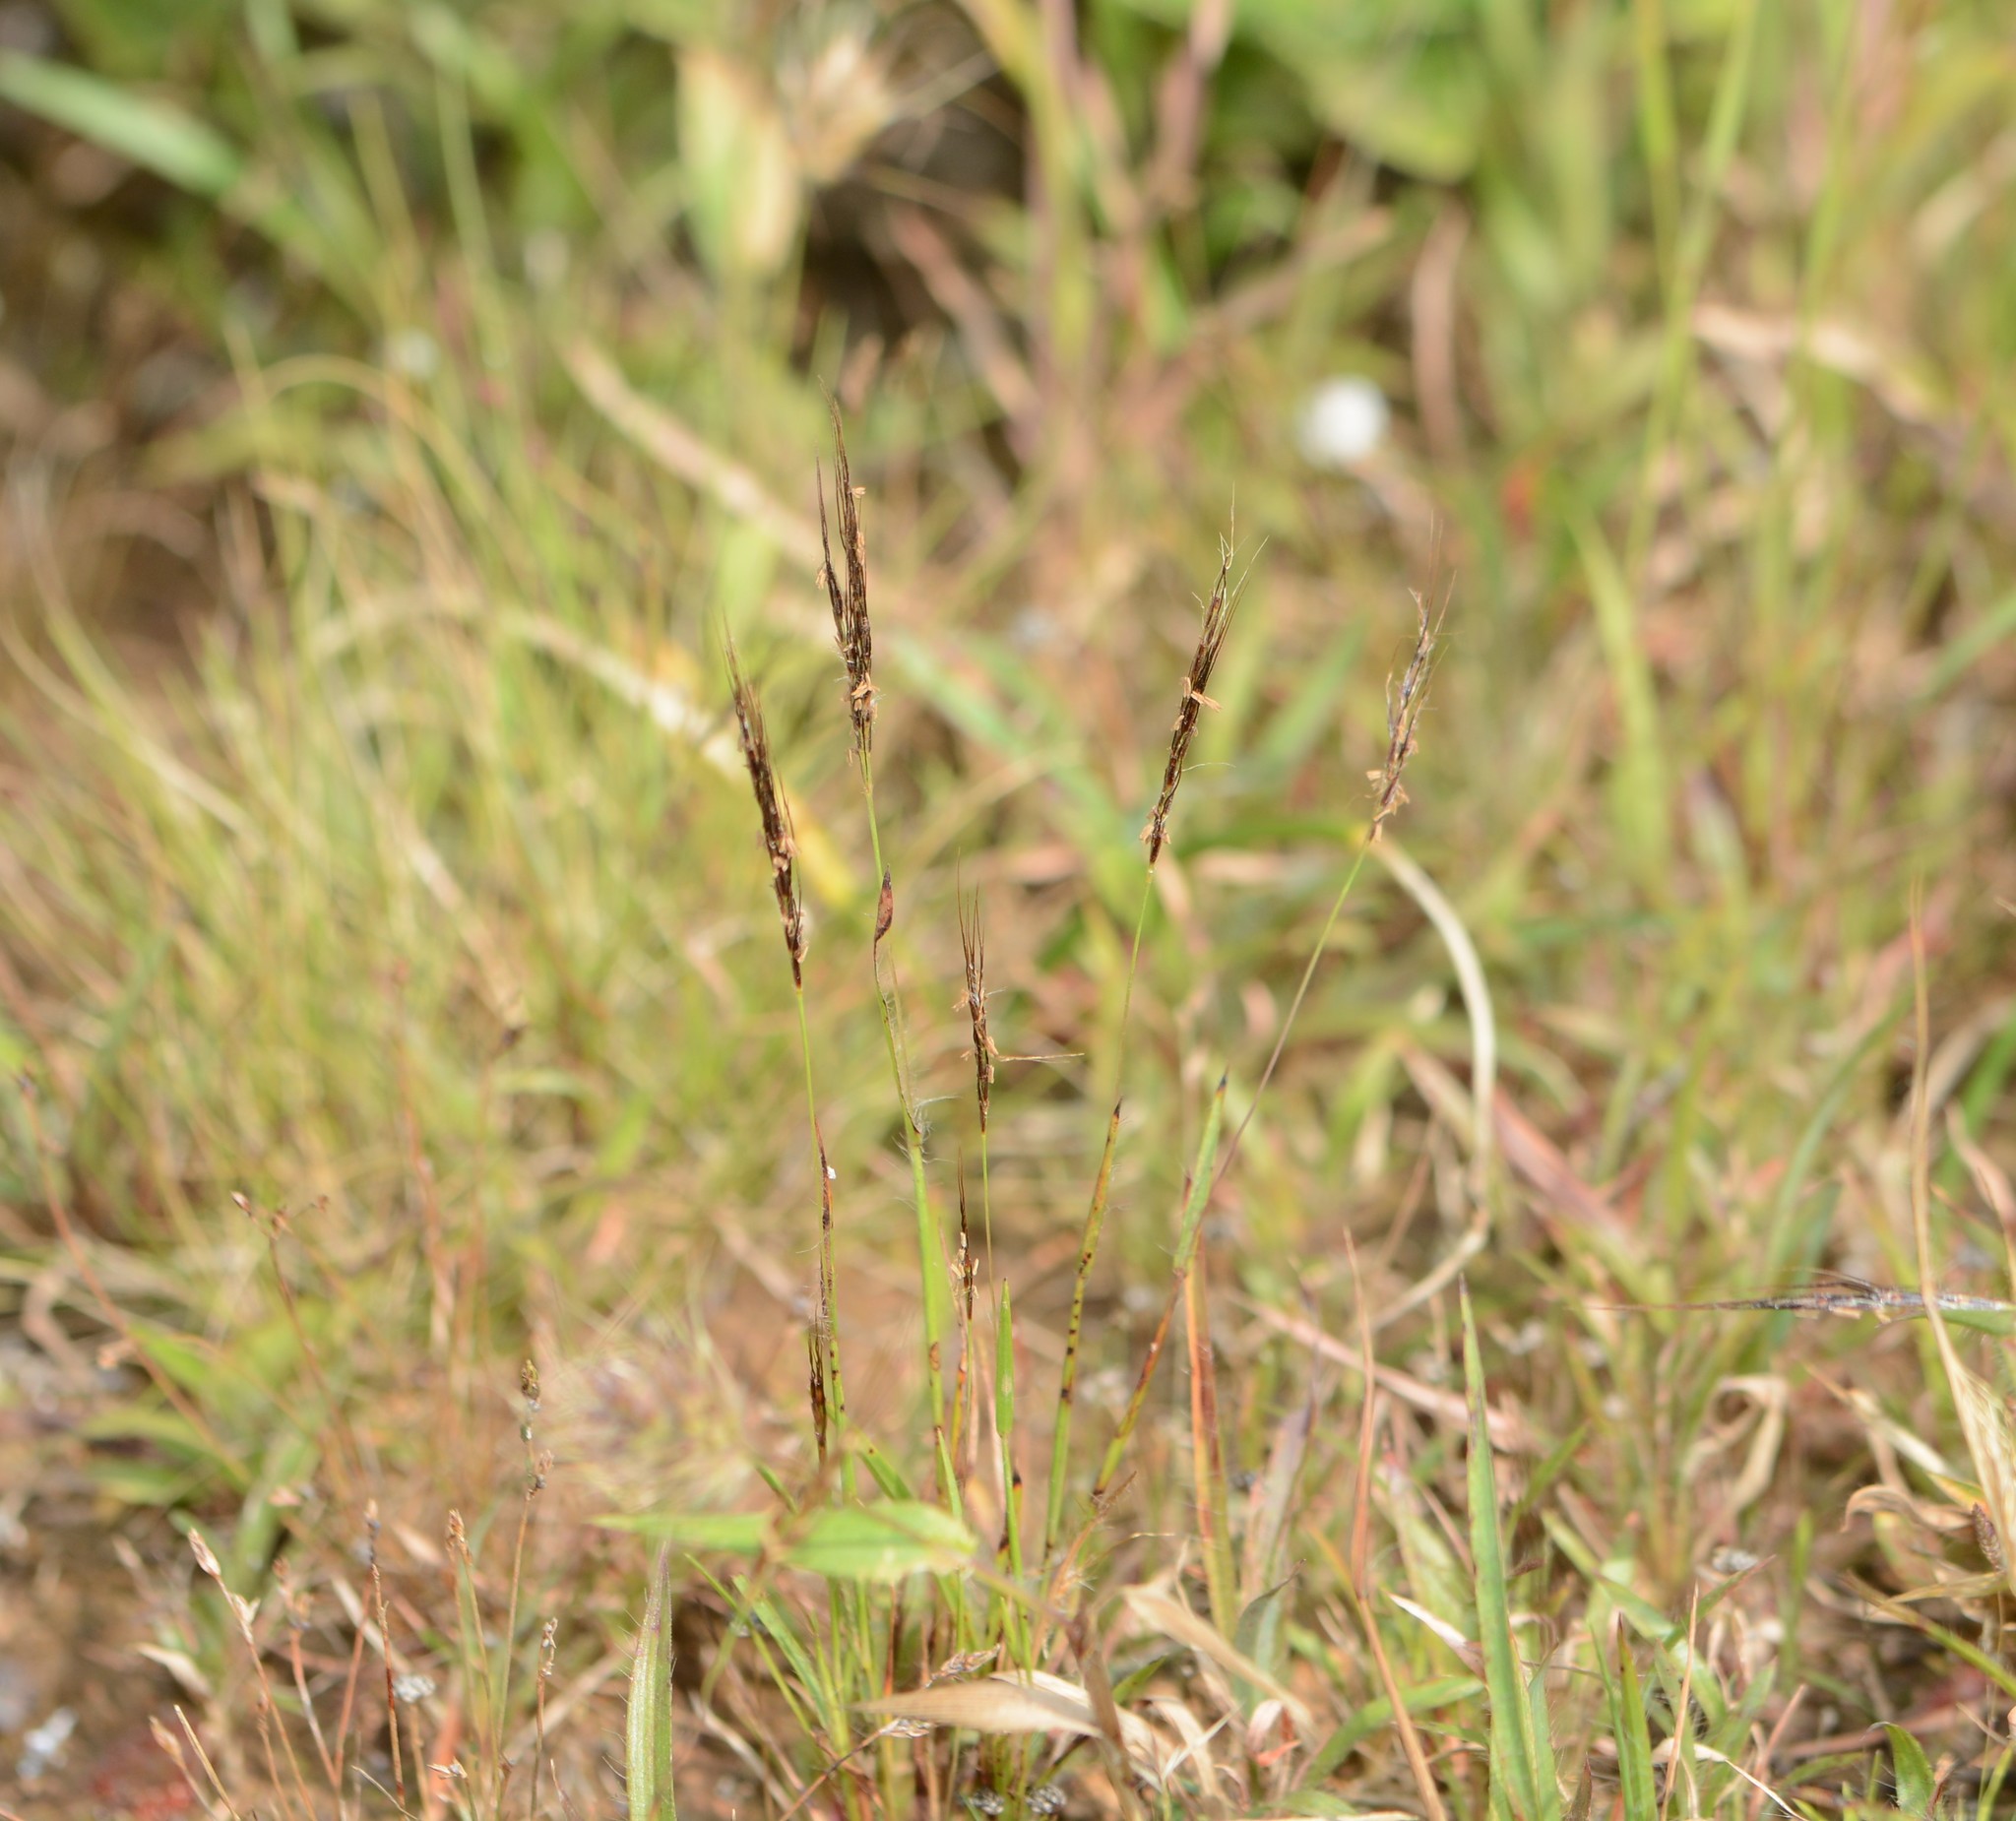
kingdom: Plantae
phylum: Tracheophyta
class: Liliopsida
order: Poales
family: Poaceae
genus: Eulalia
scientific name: Eulalia shrirangii
